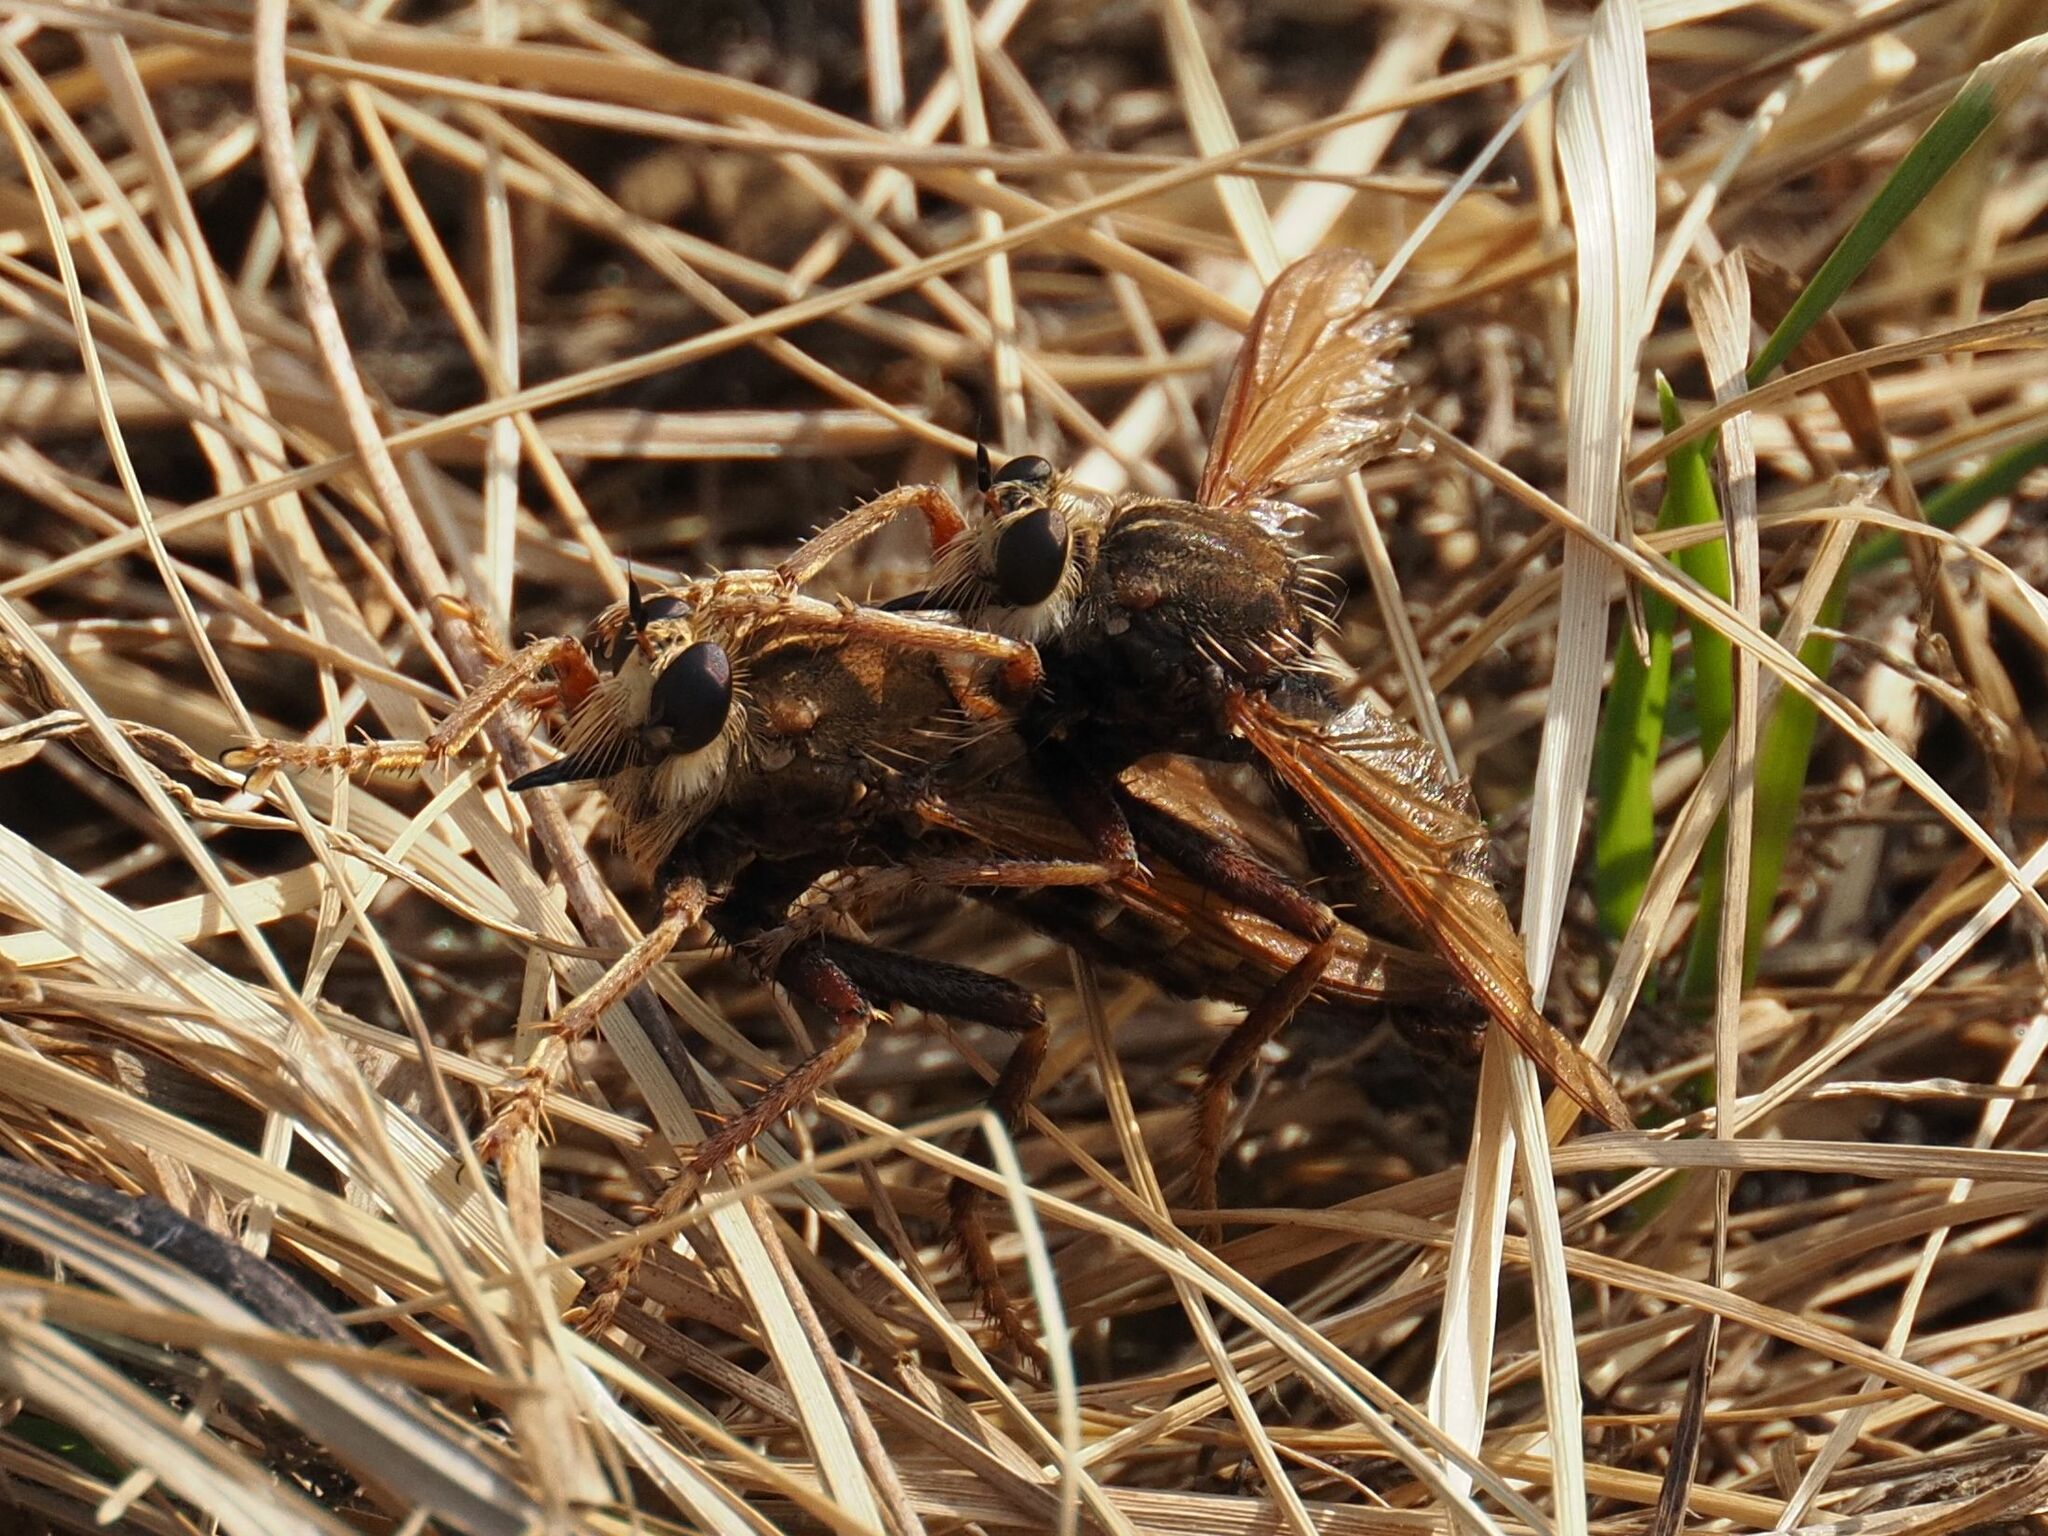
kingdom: Animalia
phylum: Arthropoda
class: Insecta
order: Diptera
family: Asilidae
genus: Asilus
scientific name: Asilus crabroniformis
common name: Hornet robberfly
